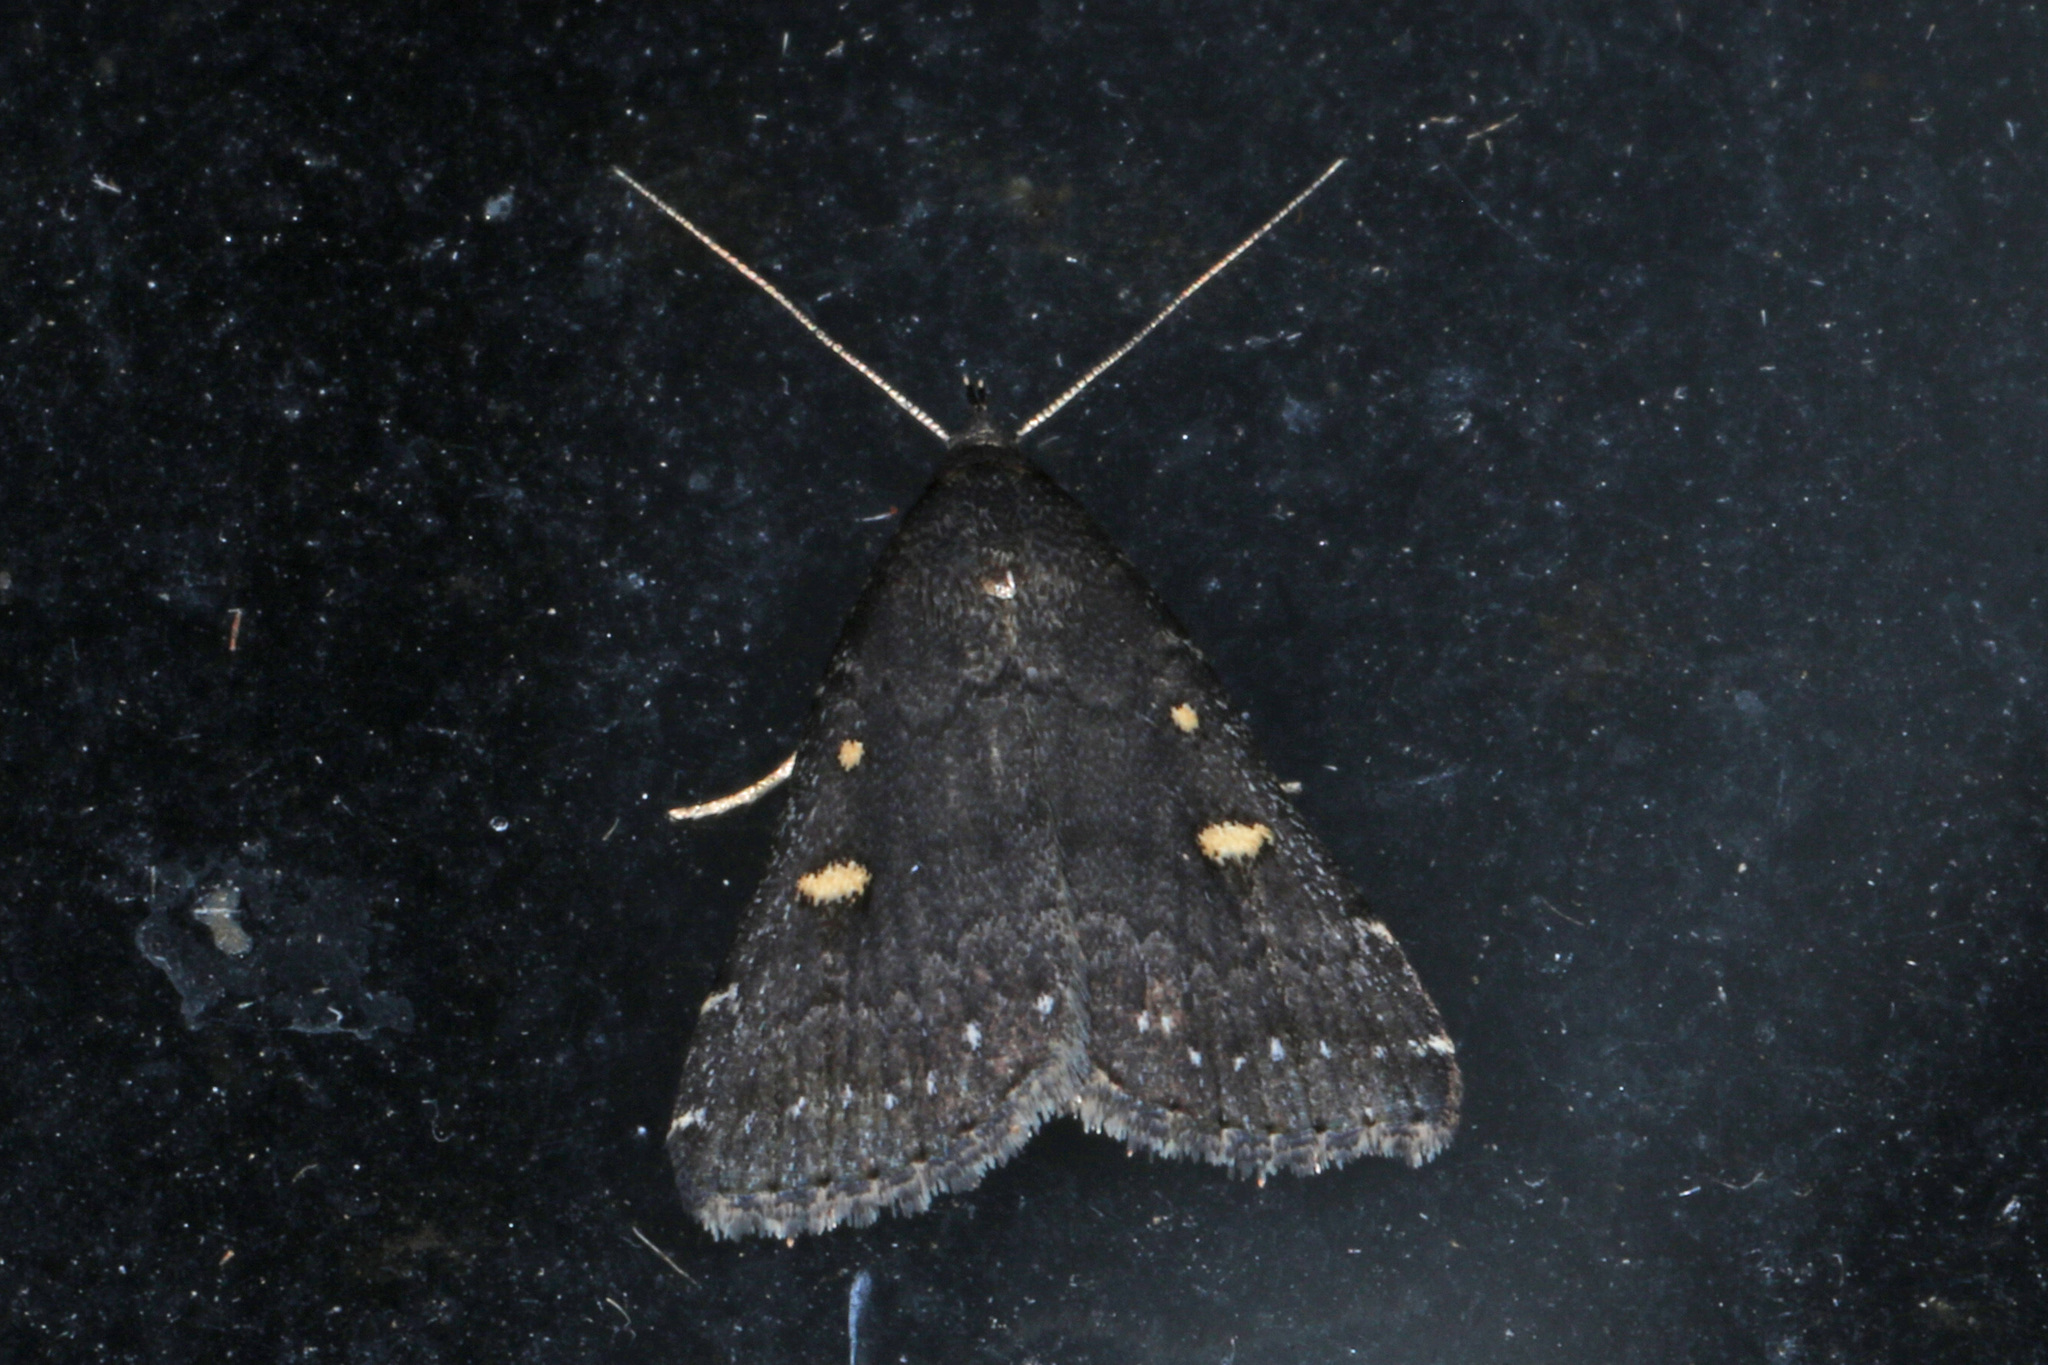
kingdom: Animalia
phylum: Arthropoda
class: Insecta
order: Lepidoptera
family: Erebidae
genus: Tetanolita
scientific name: Tetanolita mynesalis
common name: Smoky tetanolita moth
